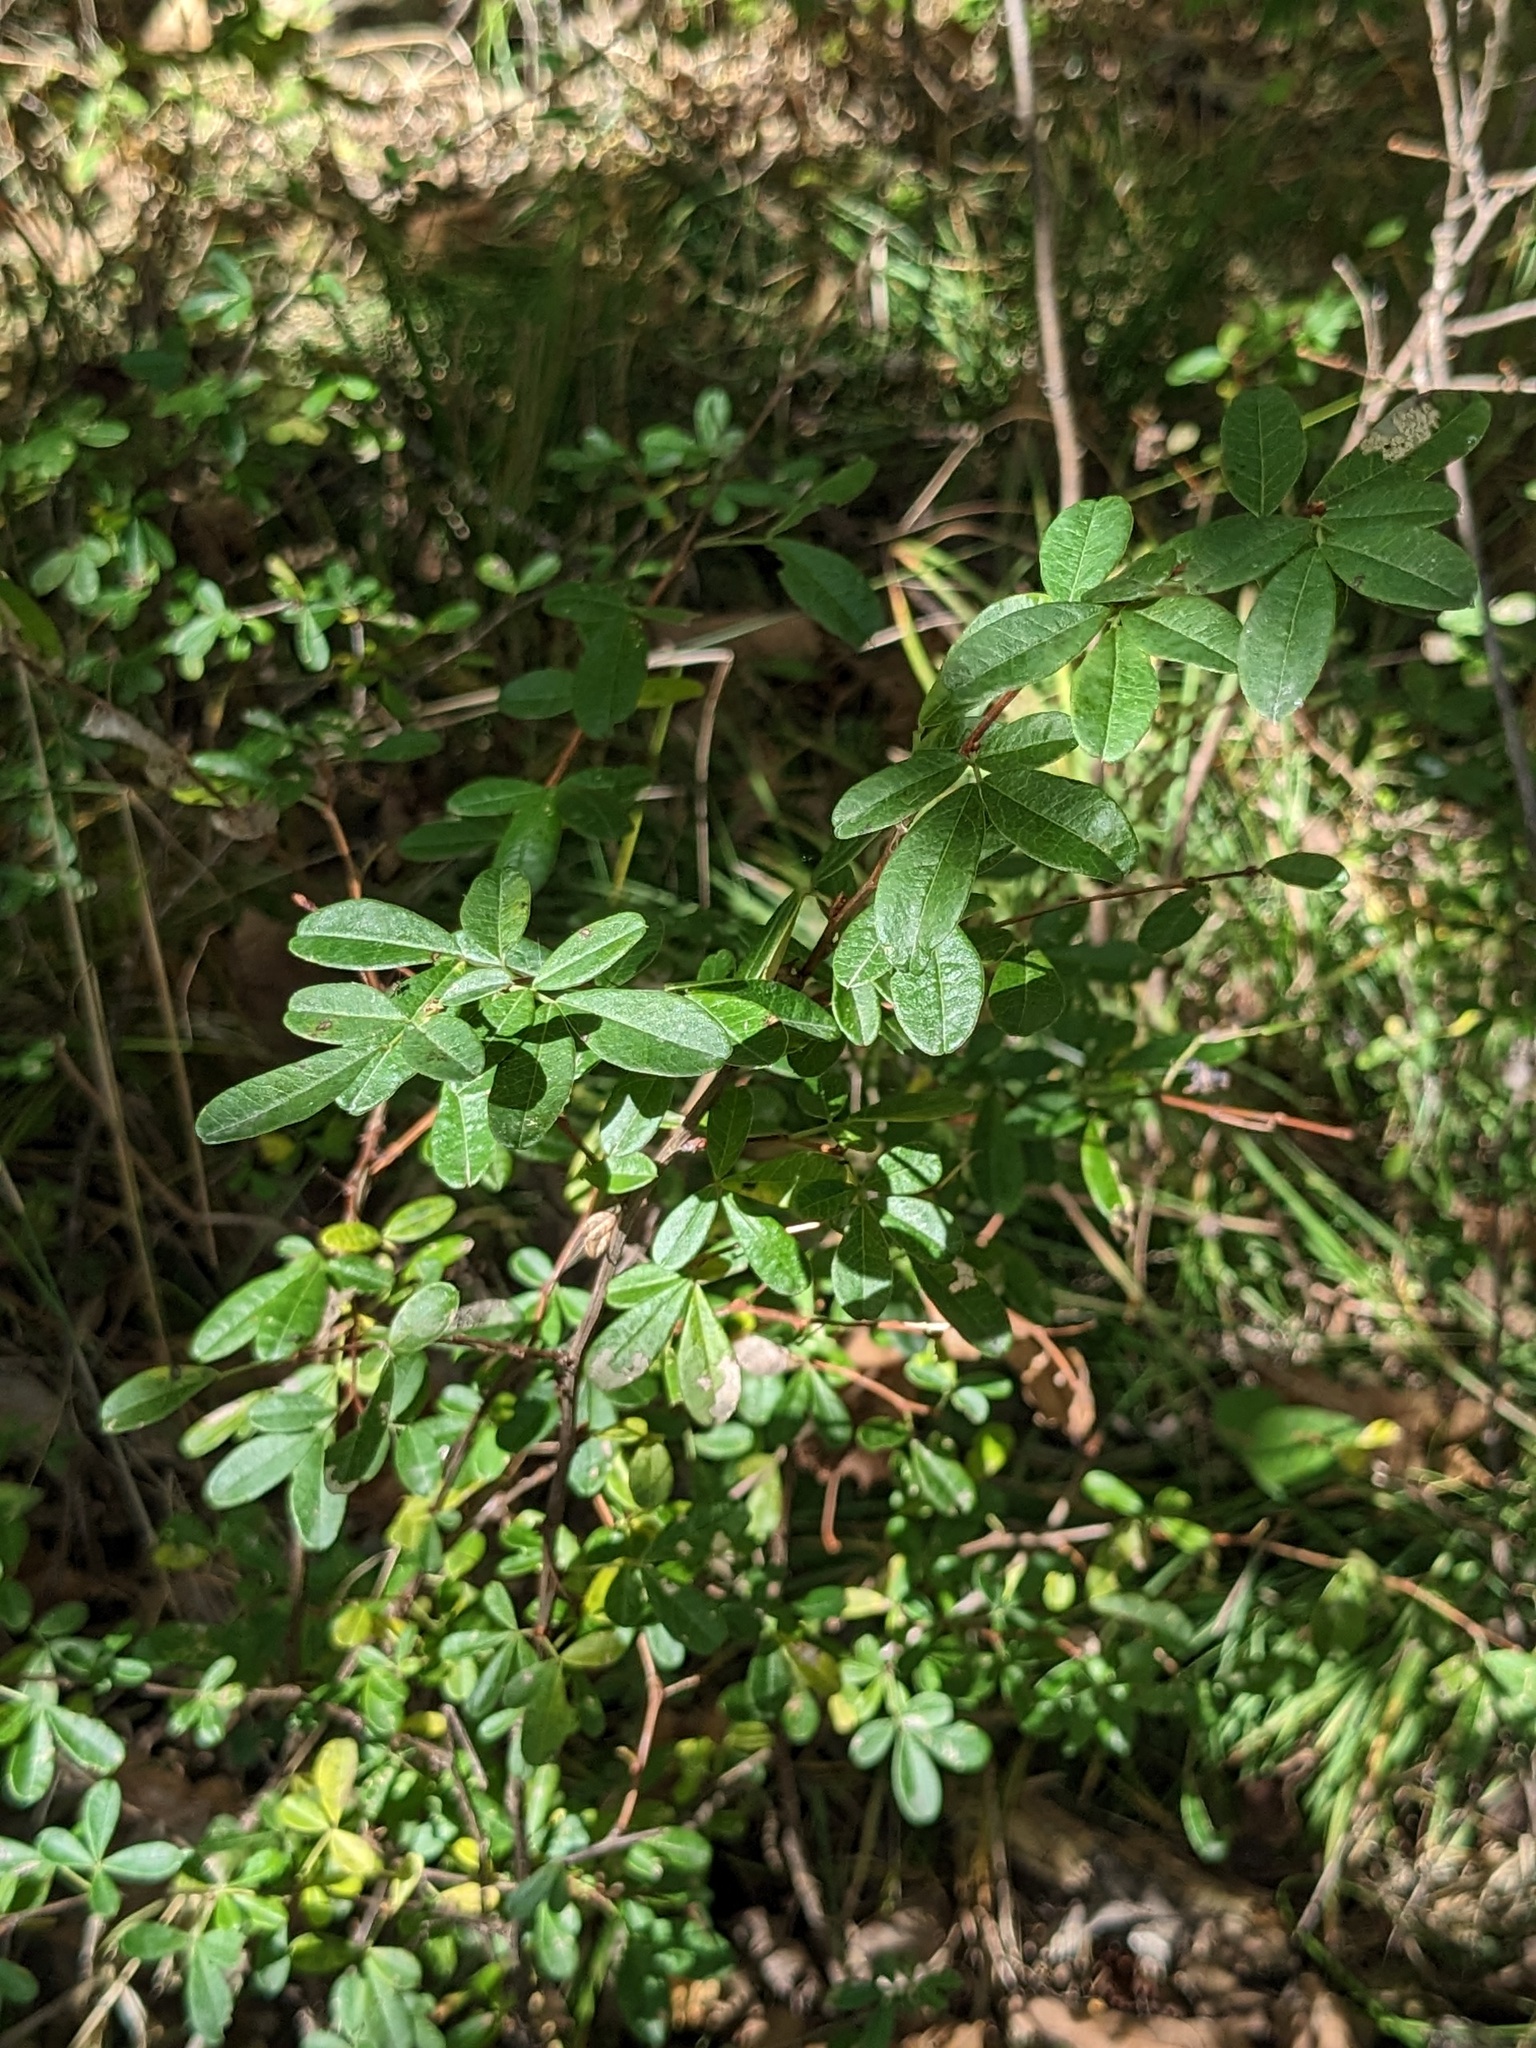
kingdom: Plantae
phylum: Tracheophyta
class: Magnoliopsida
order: Fabales
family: Fabaceae
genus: Caragana
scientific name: Caragana ussuriensis
